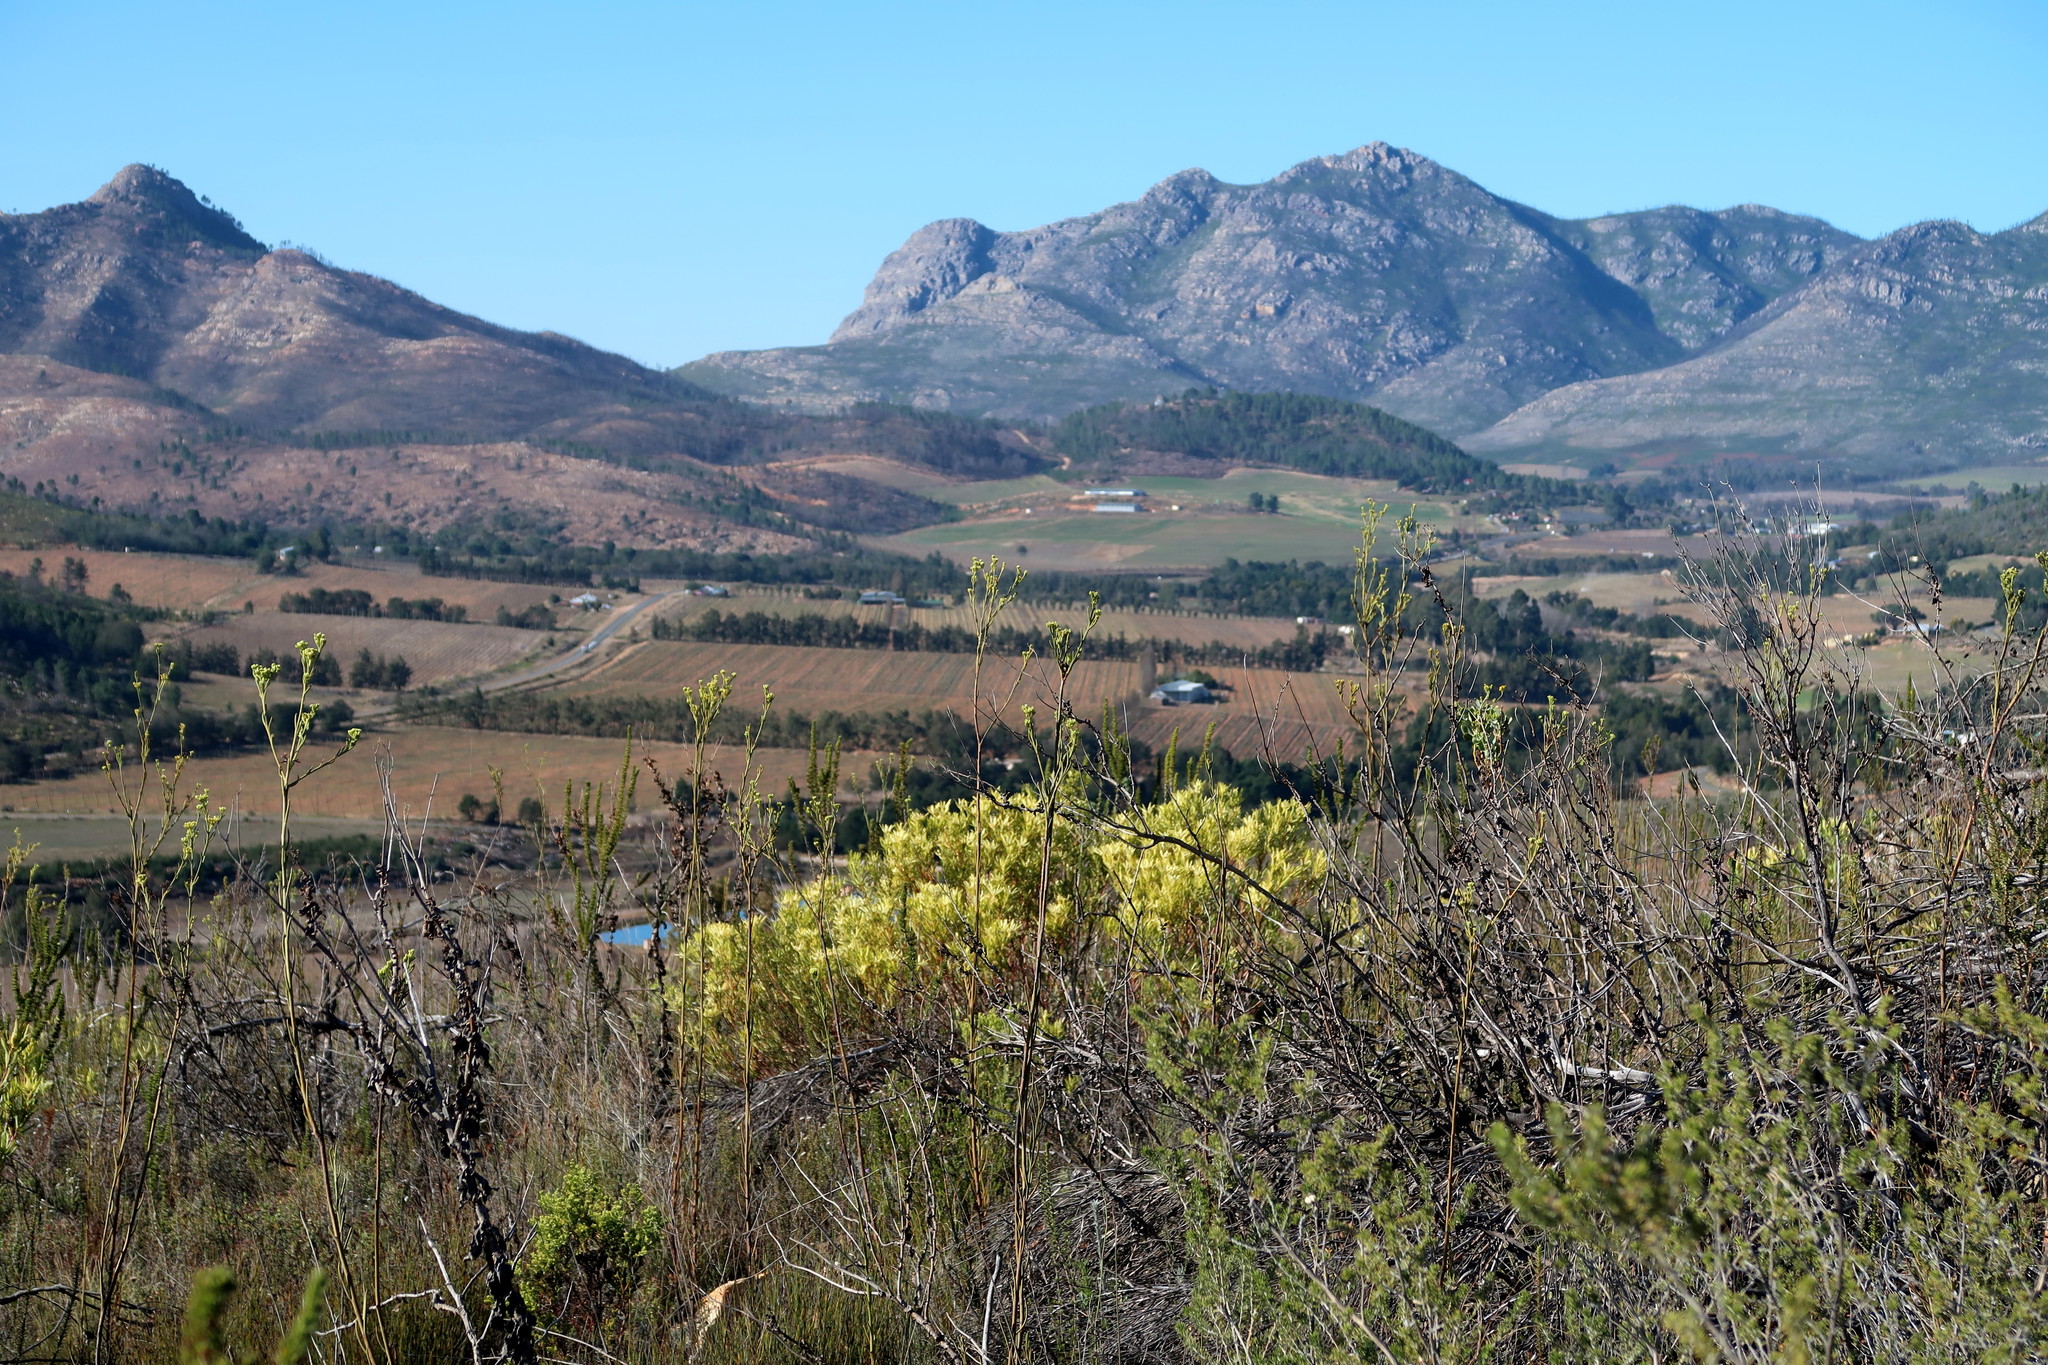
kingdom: Plantae
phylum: Tracheophyta
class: Magnoliopsida
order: Proteales
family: Proteaceae
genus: Leucadendron
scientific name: Leucadendron salignum
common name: Common sunshine conebush
